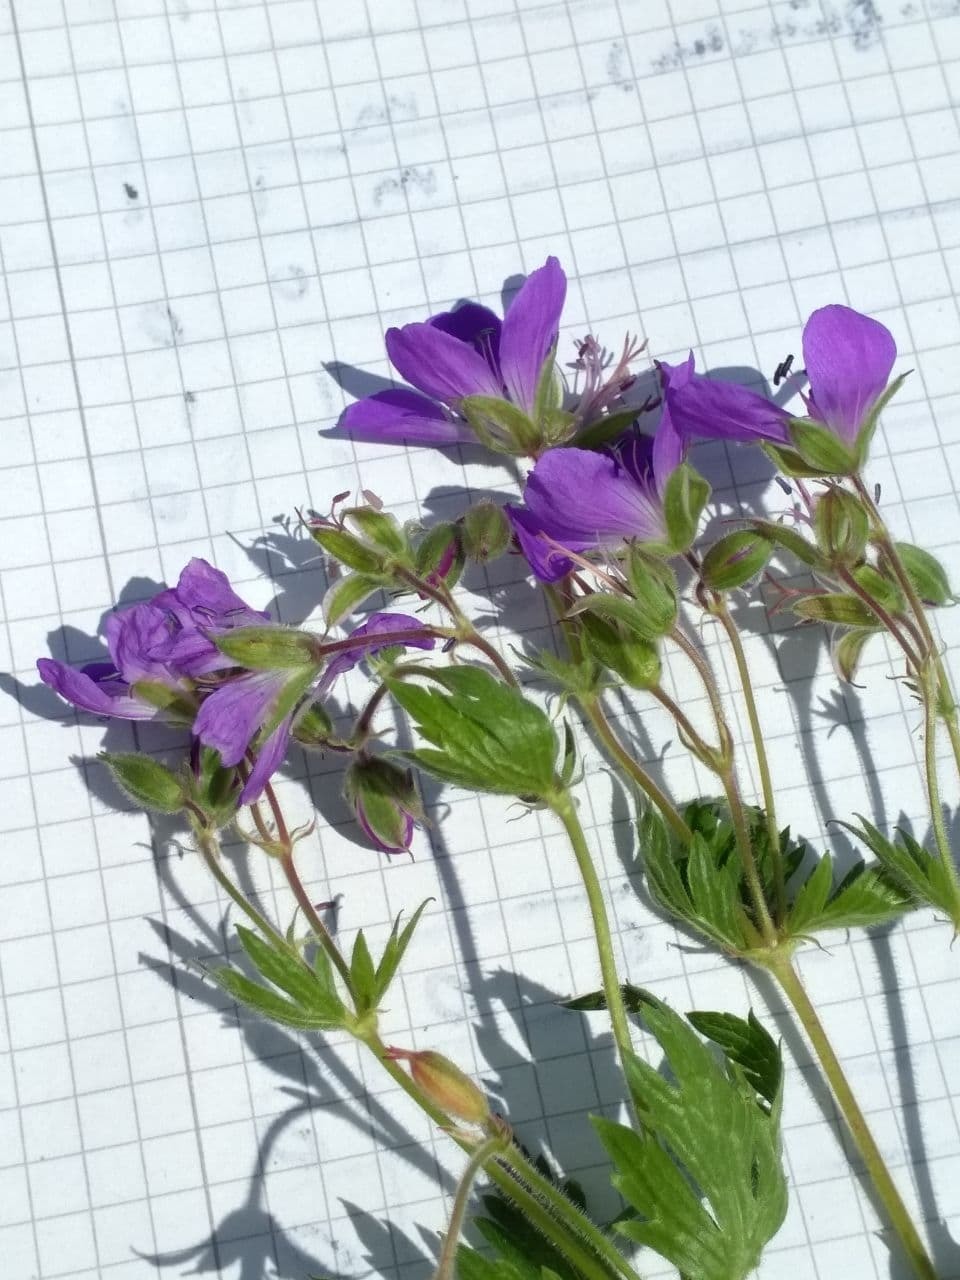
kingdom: Plantae
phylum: Tracheophyta
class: Magnoliopsida
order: Geraniales
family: Geraniaceae
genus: Geranium
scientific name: Geranium sylvaticum
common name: Wood crane's-bill
